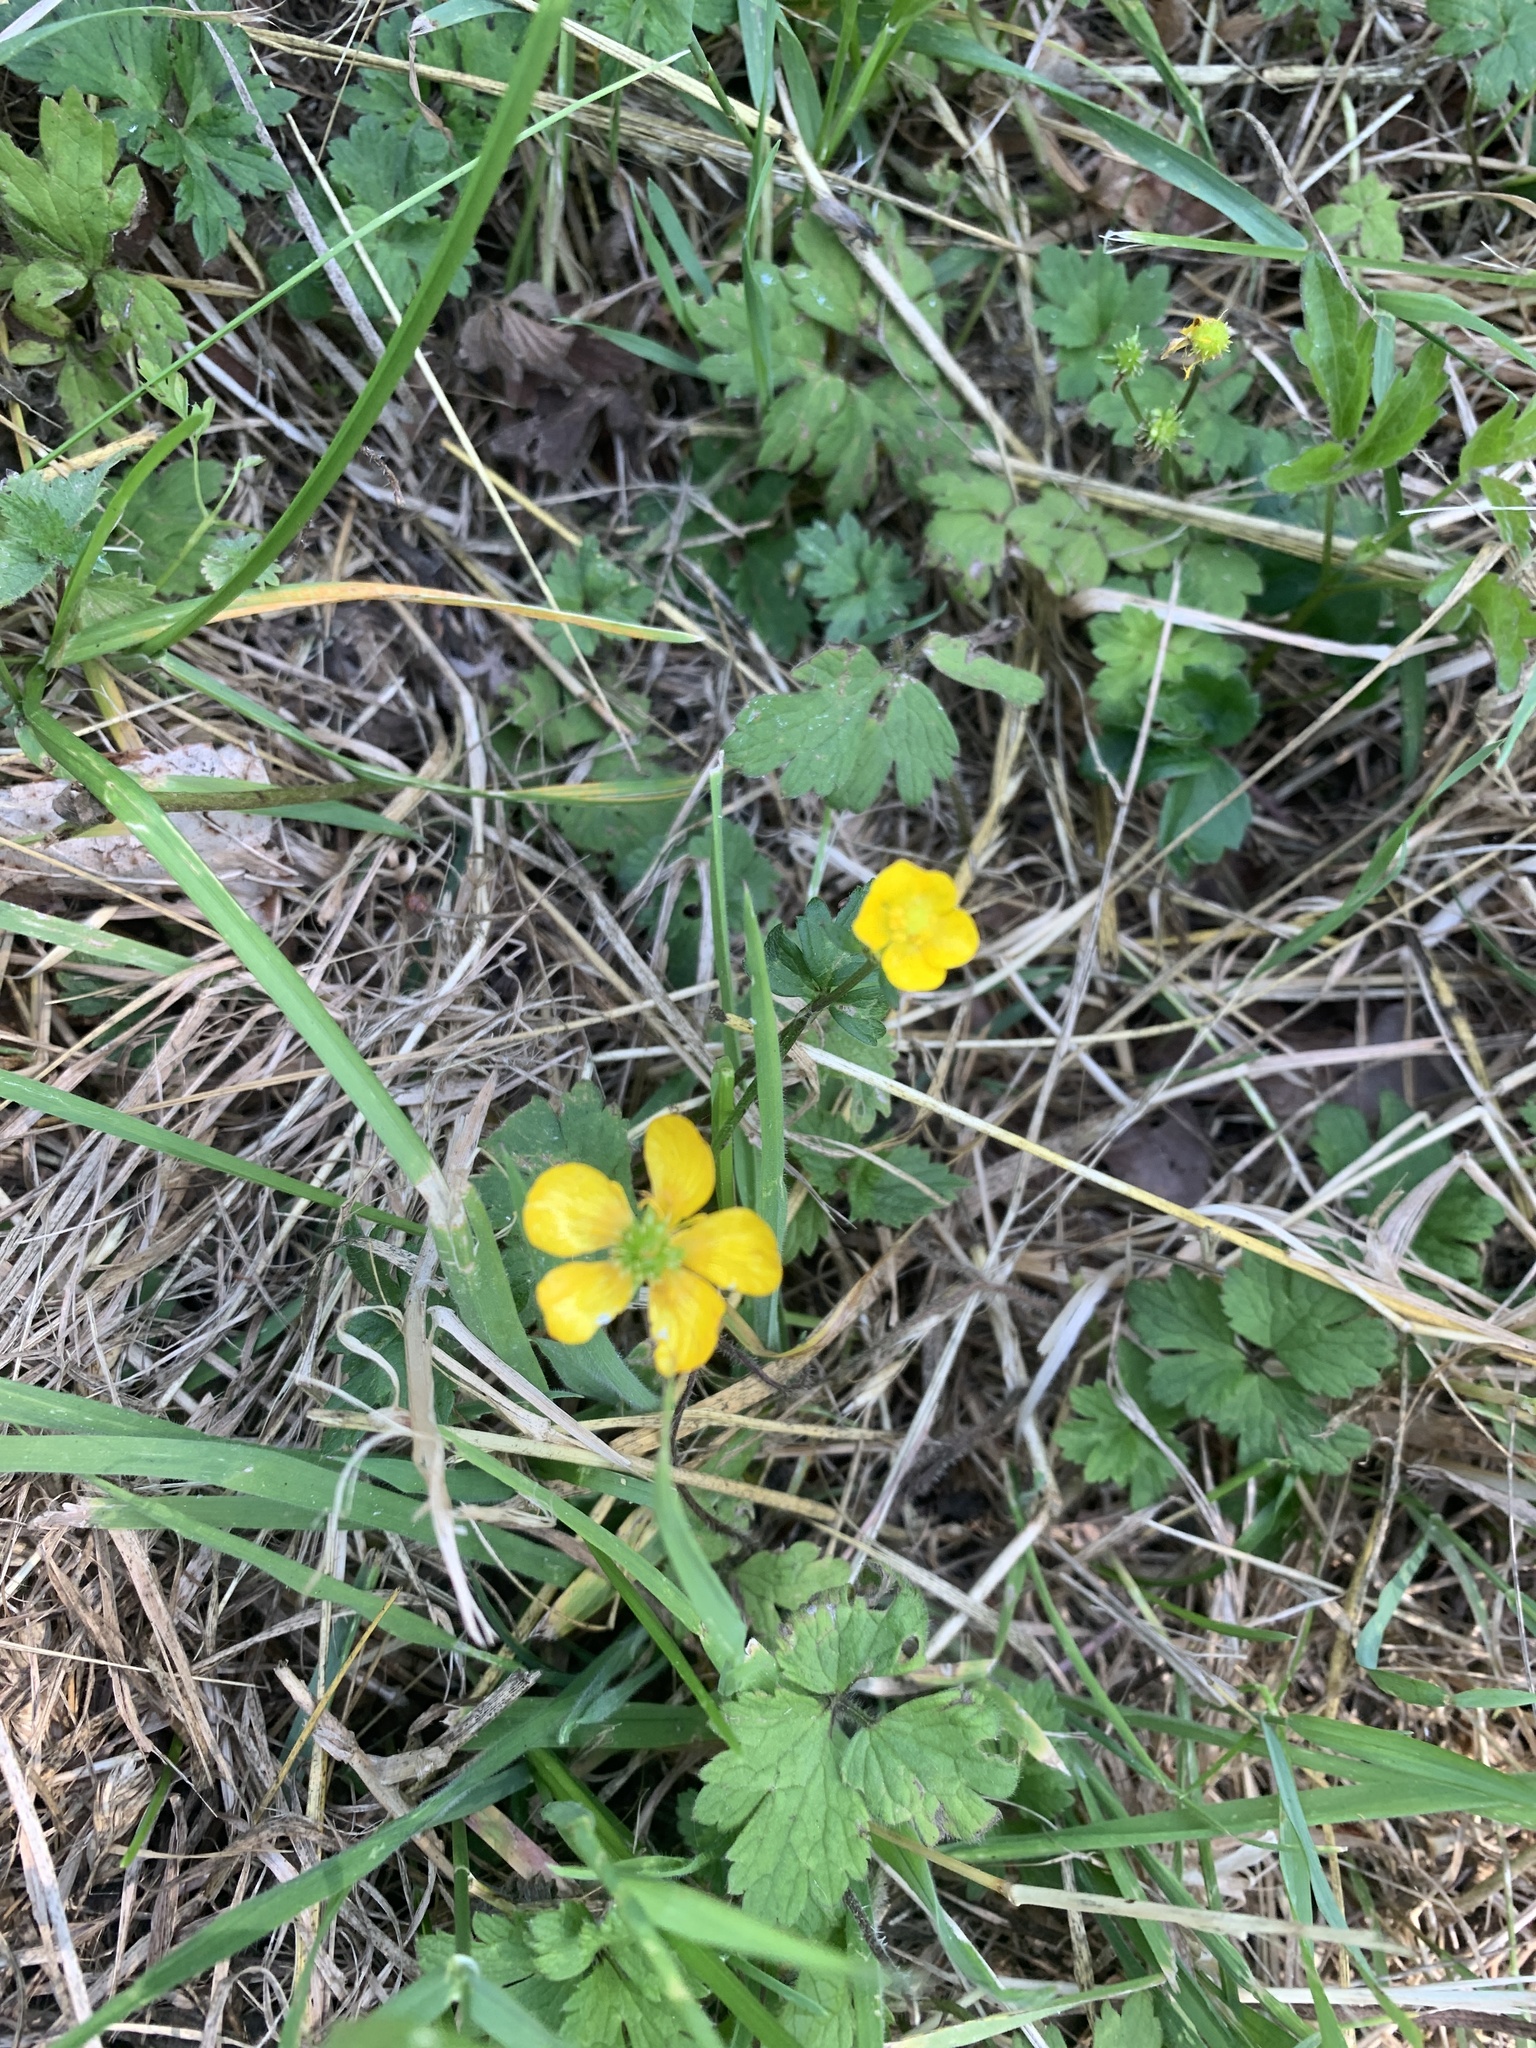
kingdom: Plantae
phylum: Tracheophyta
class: Magnoliopsida
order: Ranunculales
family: Ranunculaceae
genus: Ranunculus
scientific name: Ranunculus repens
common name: Creeping buttercup
